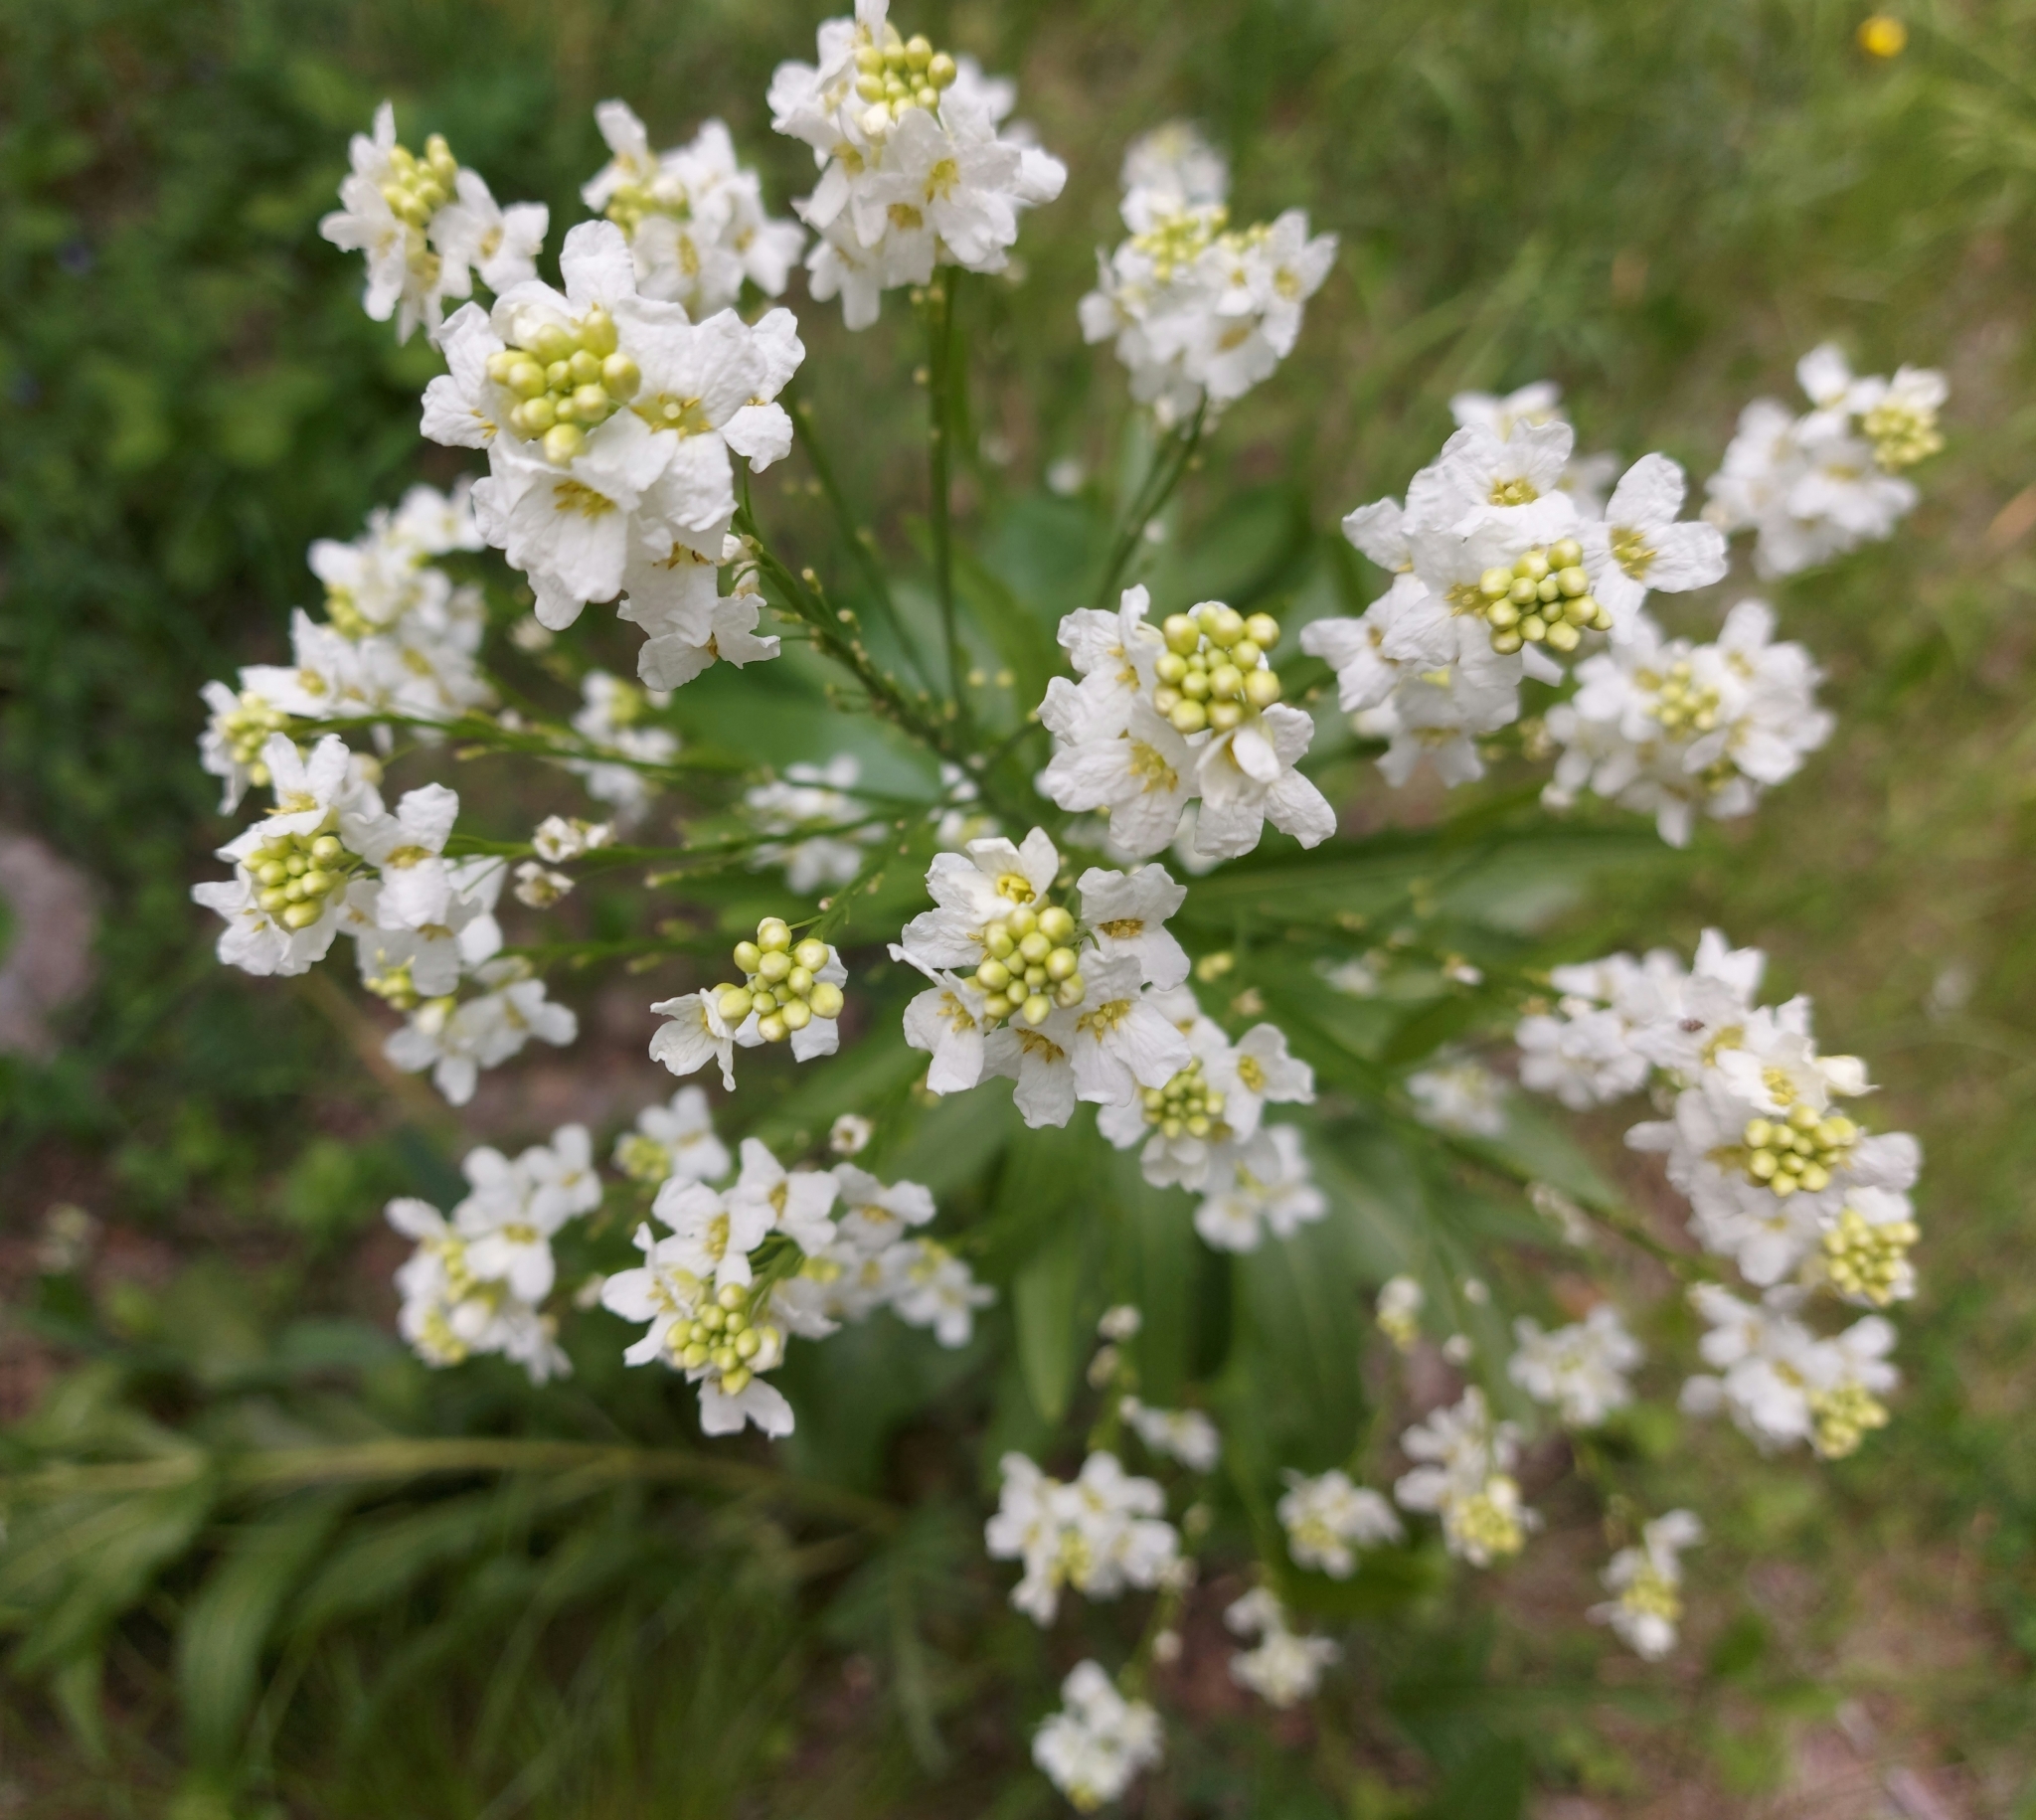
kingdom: Plantae
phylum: Tracheophyta
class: Magnoliopsida
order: Brassicales
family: Brassicaceae
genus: Berteroa
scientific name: Berteroa incana
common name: Hoary alison
